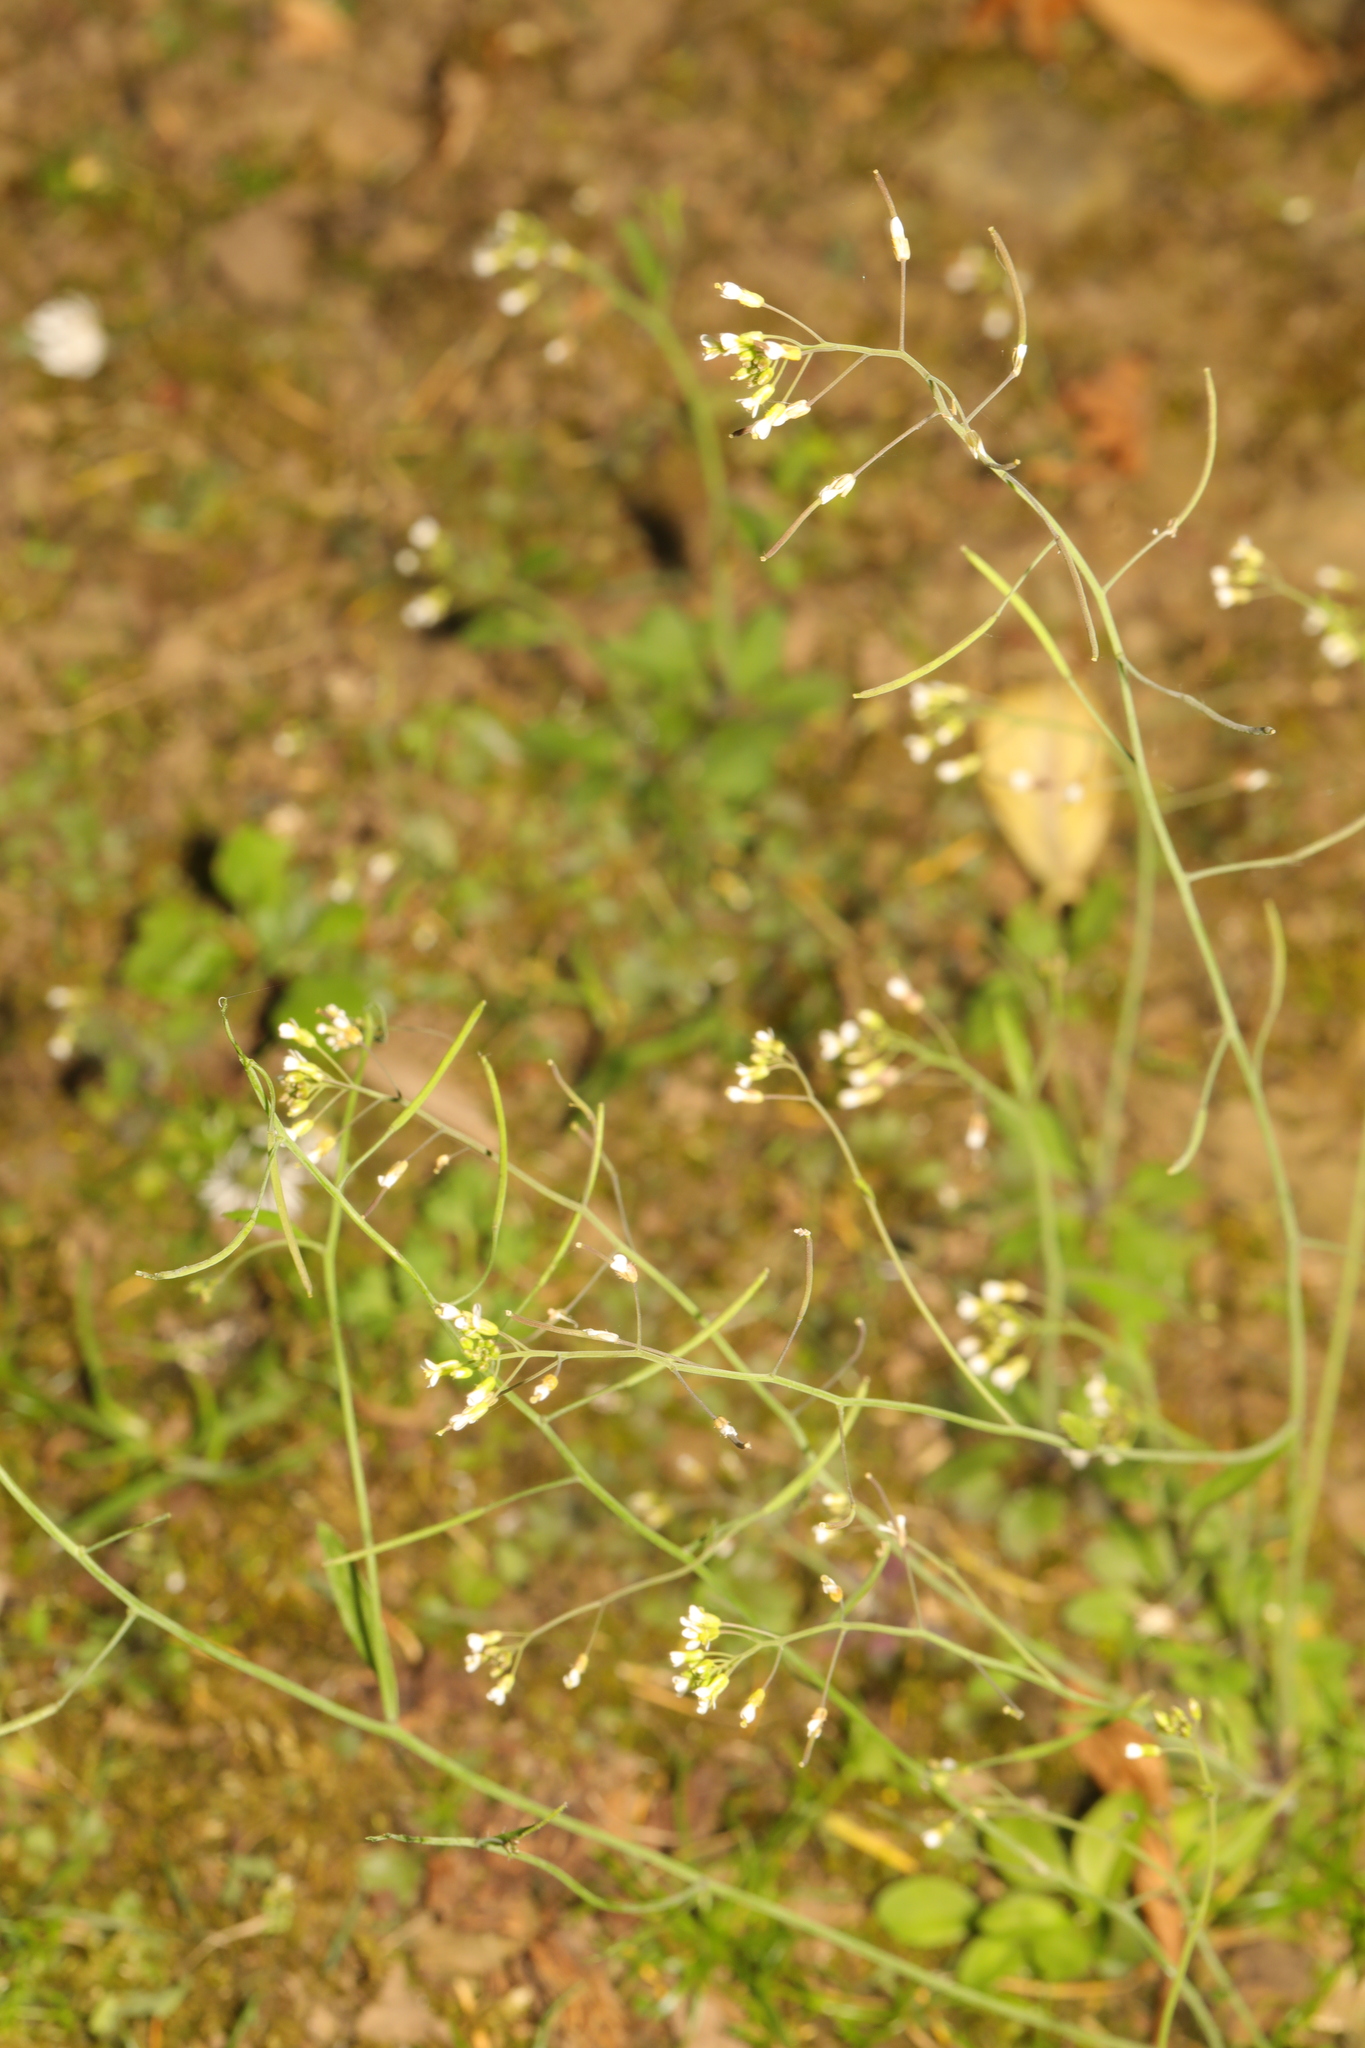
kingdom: Plantae
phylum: Tracheophyta
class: Magnoliopsida
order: Brassicales
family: Brassicaceae
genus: Arabidopsis
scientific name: Arabidopsis thaliana
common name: Thale cress
